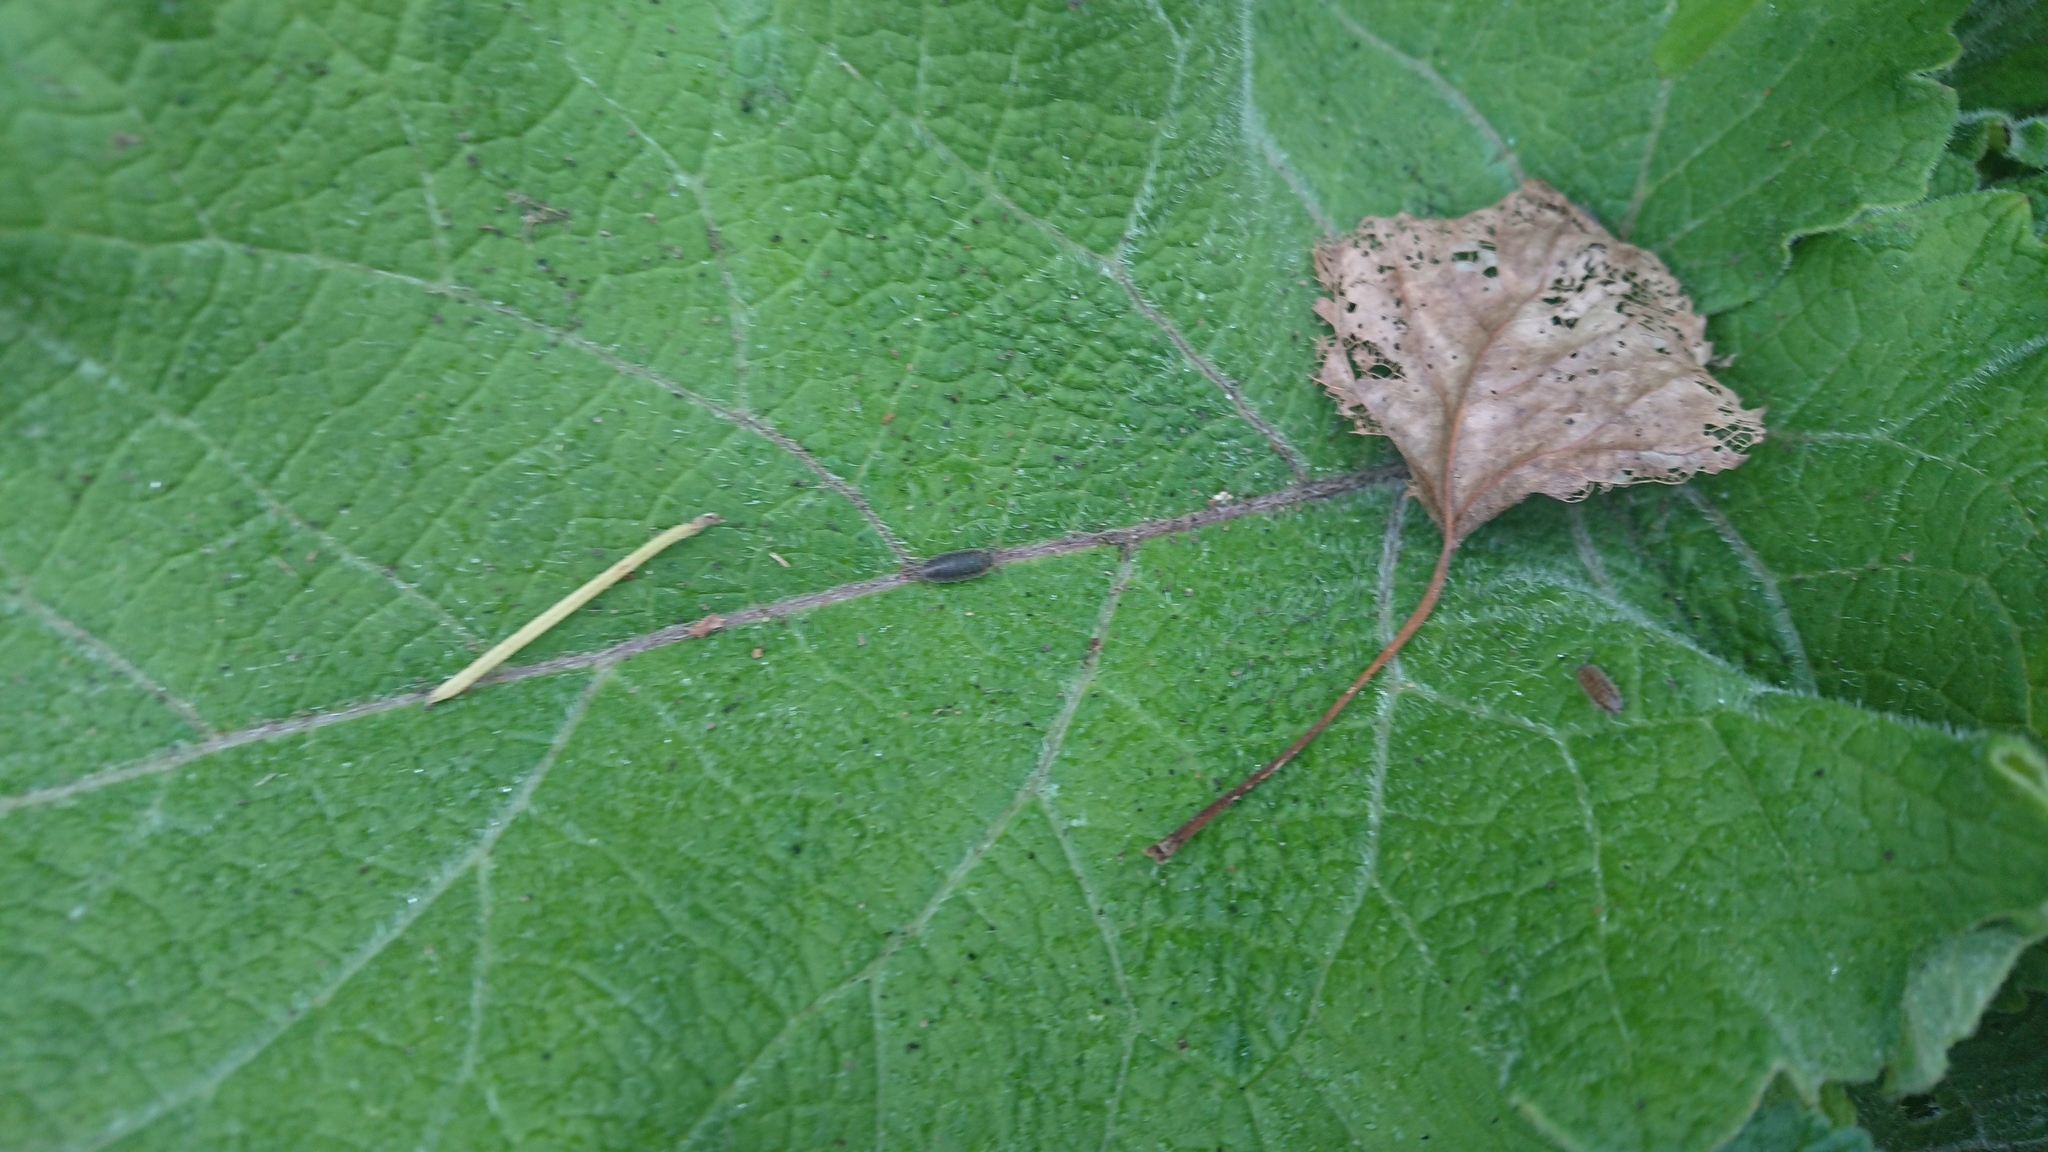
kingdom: Animalia
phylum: Arthropoda
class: Malacostraca
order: Isopoda
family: Porcellionidae
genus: Porcellio
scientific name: Porcellio scaber
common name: Common rough woodlouse
